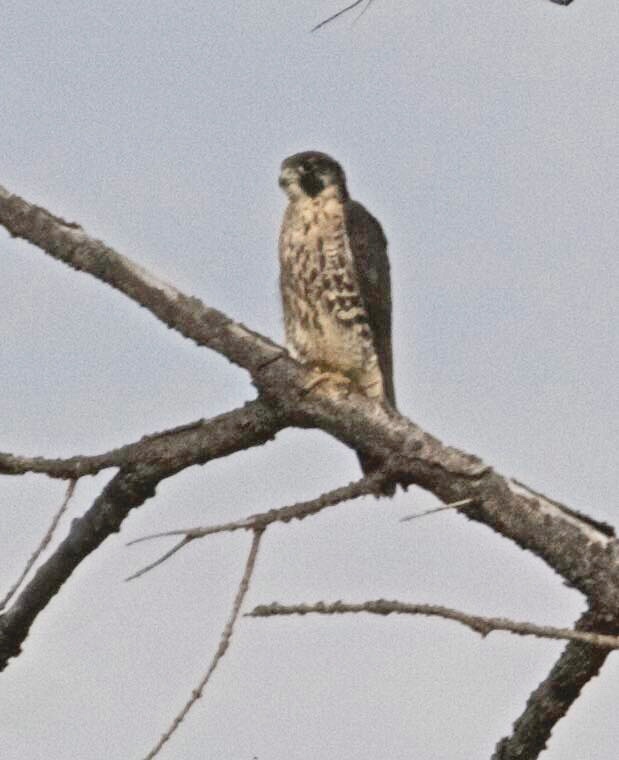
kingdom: Animalia
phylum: Chordata
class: Aves
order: Falconiformes
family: Falconidae
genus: Falco
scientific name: Falco peregrinus
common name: Peregrine falcon
